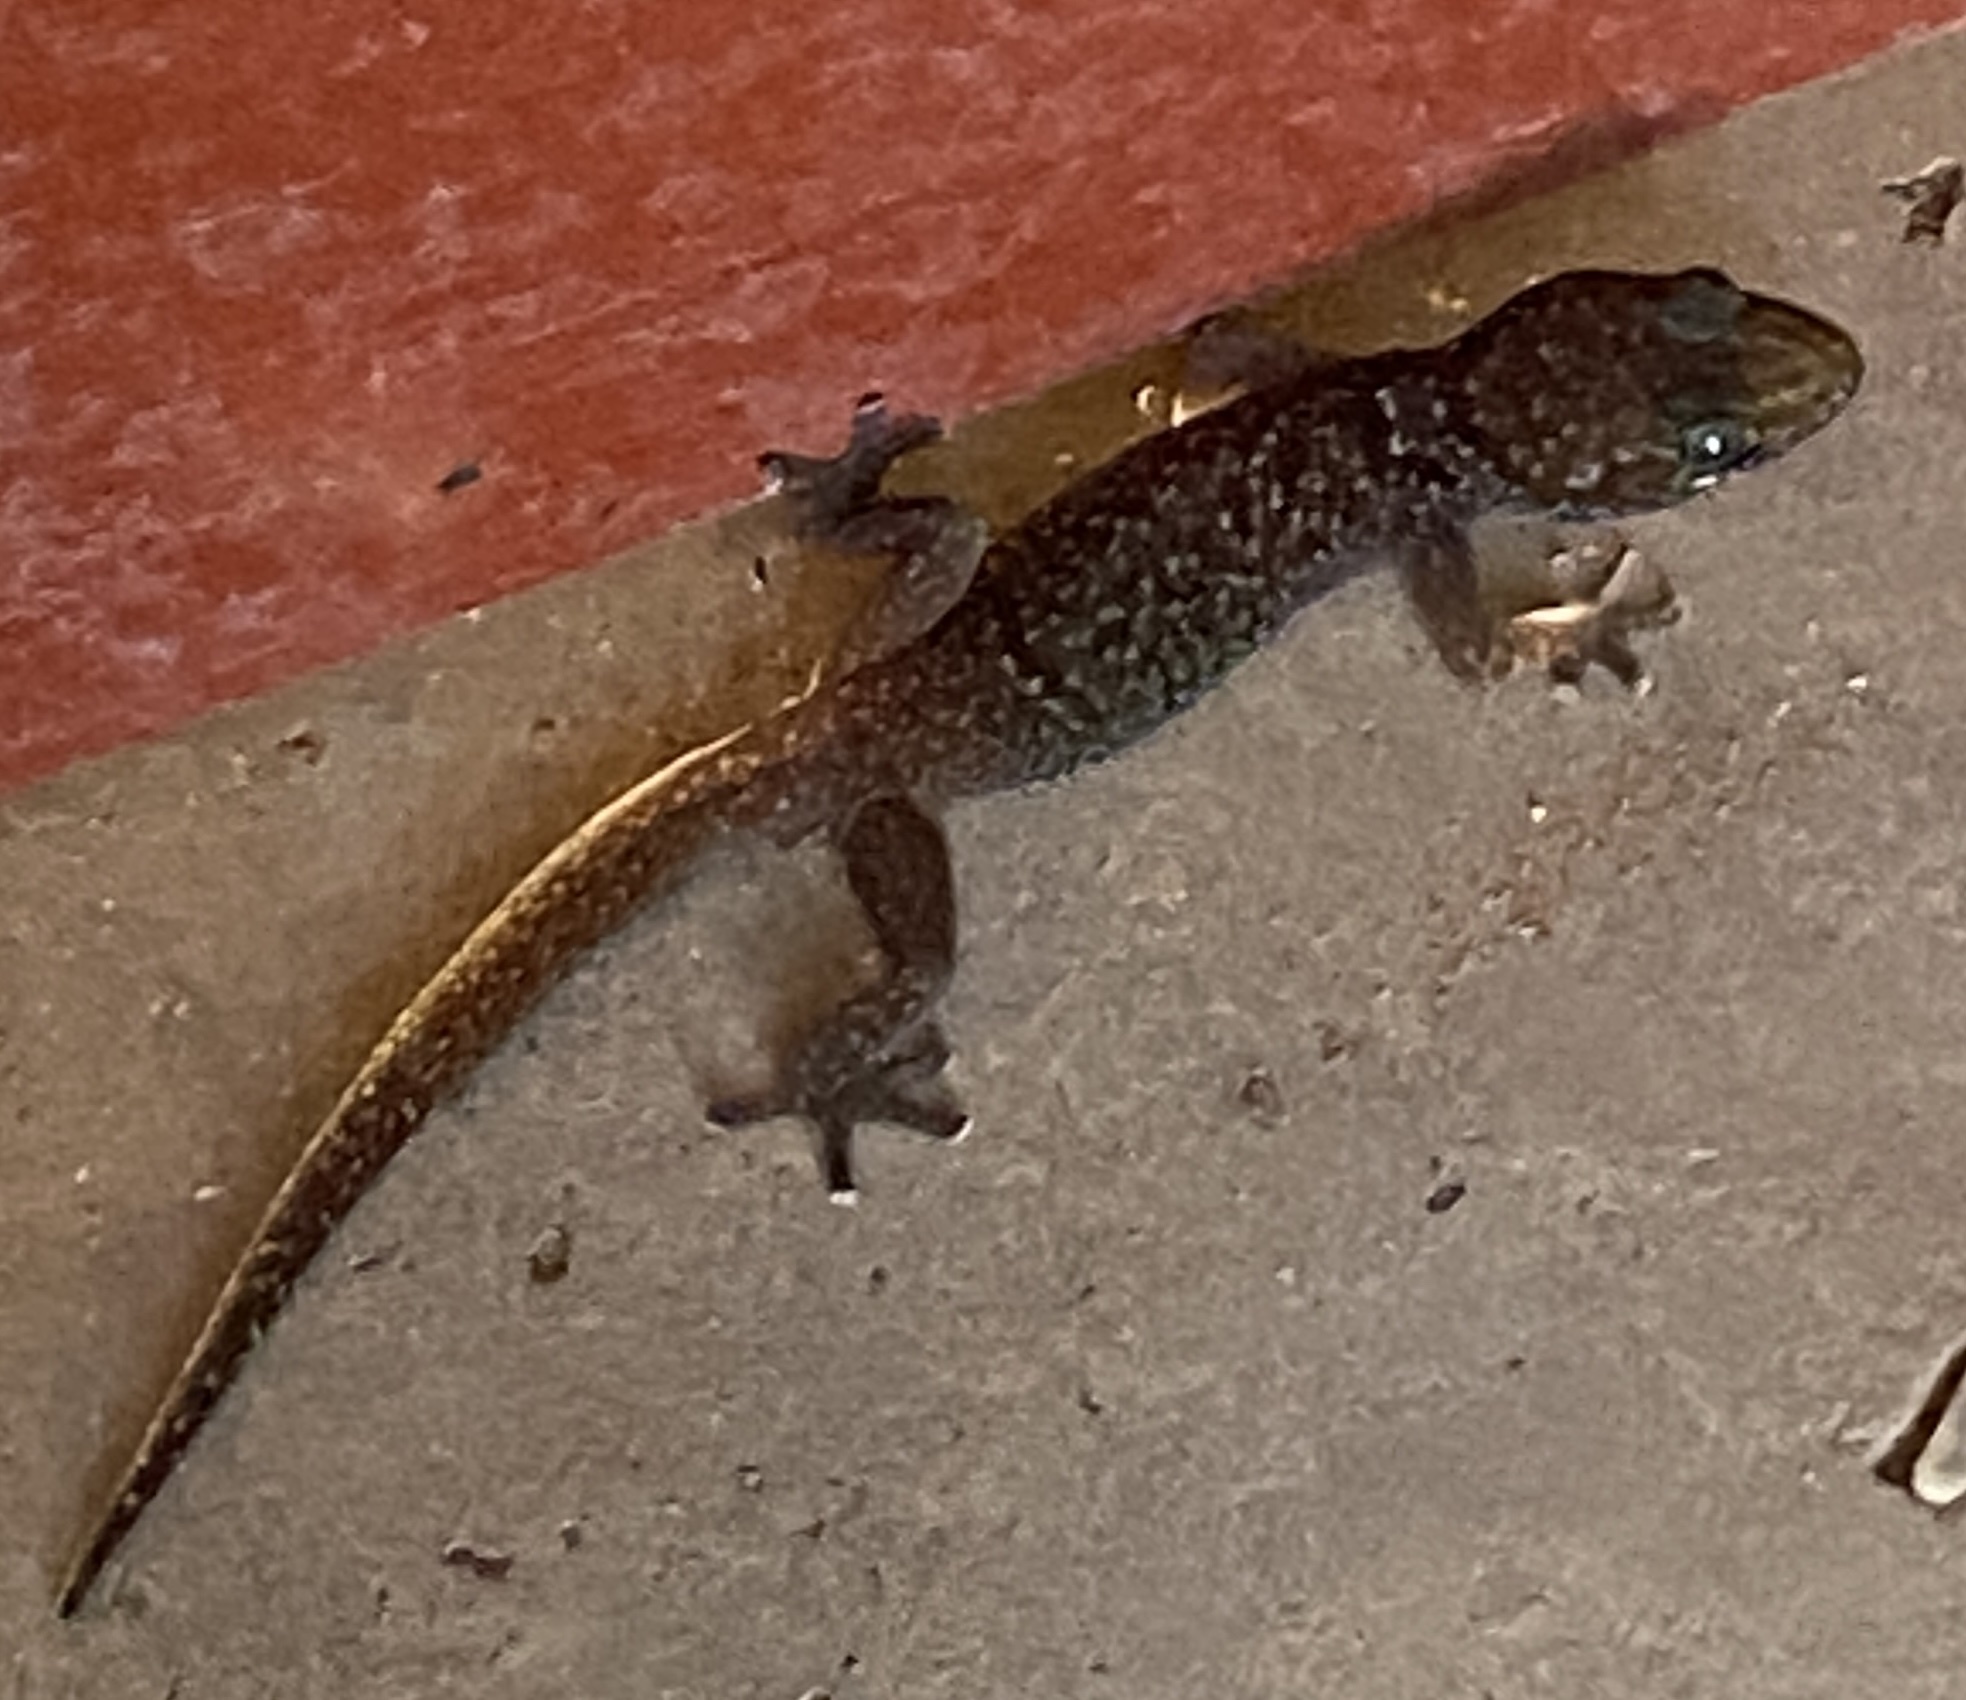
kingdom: Animalia
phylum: Chordata
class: Squamata
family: Gekkonidae
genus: Pachydactylus
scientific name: Pachydactylus maraisi
